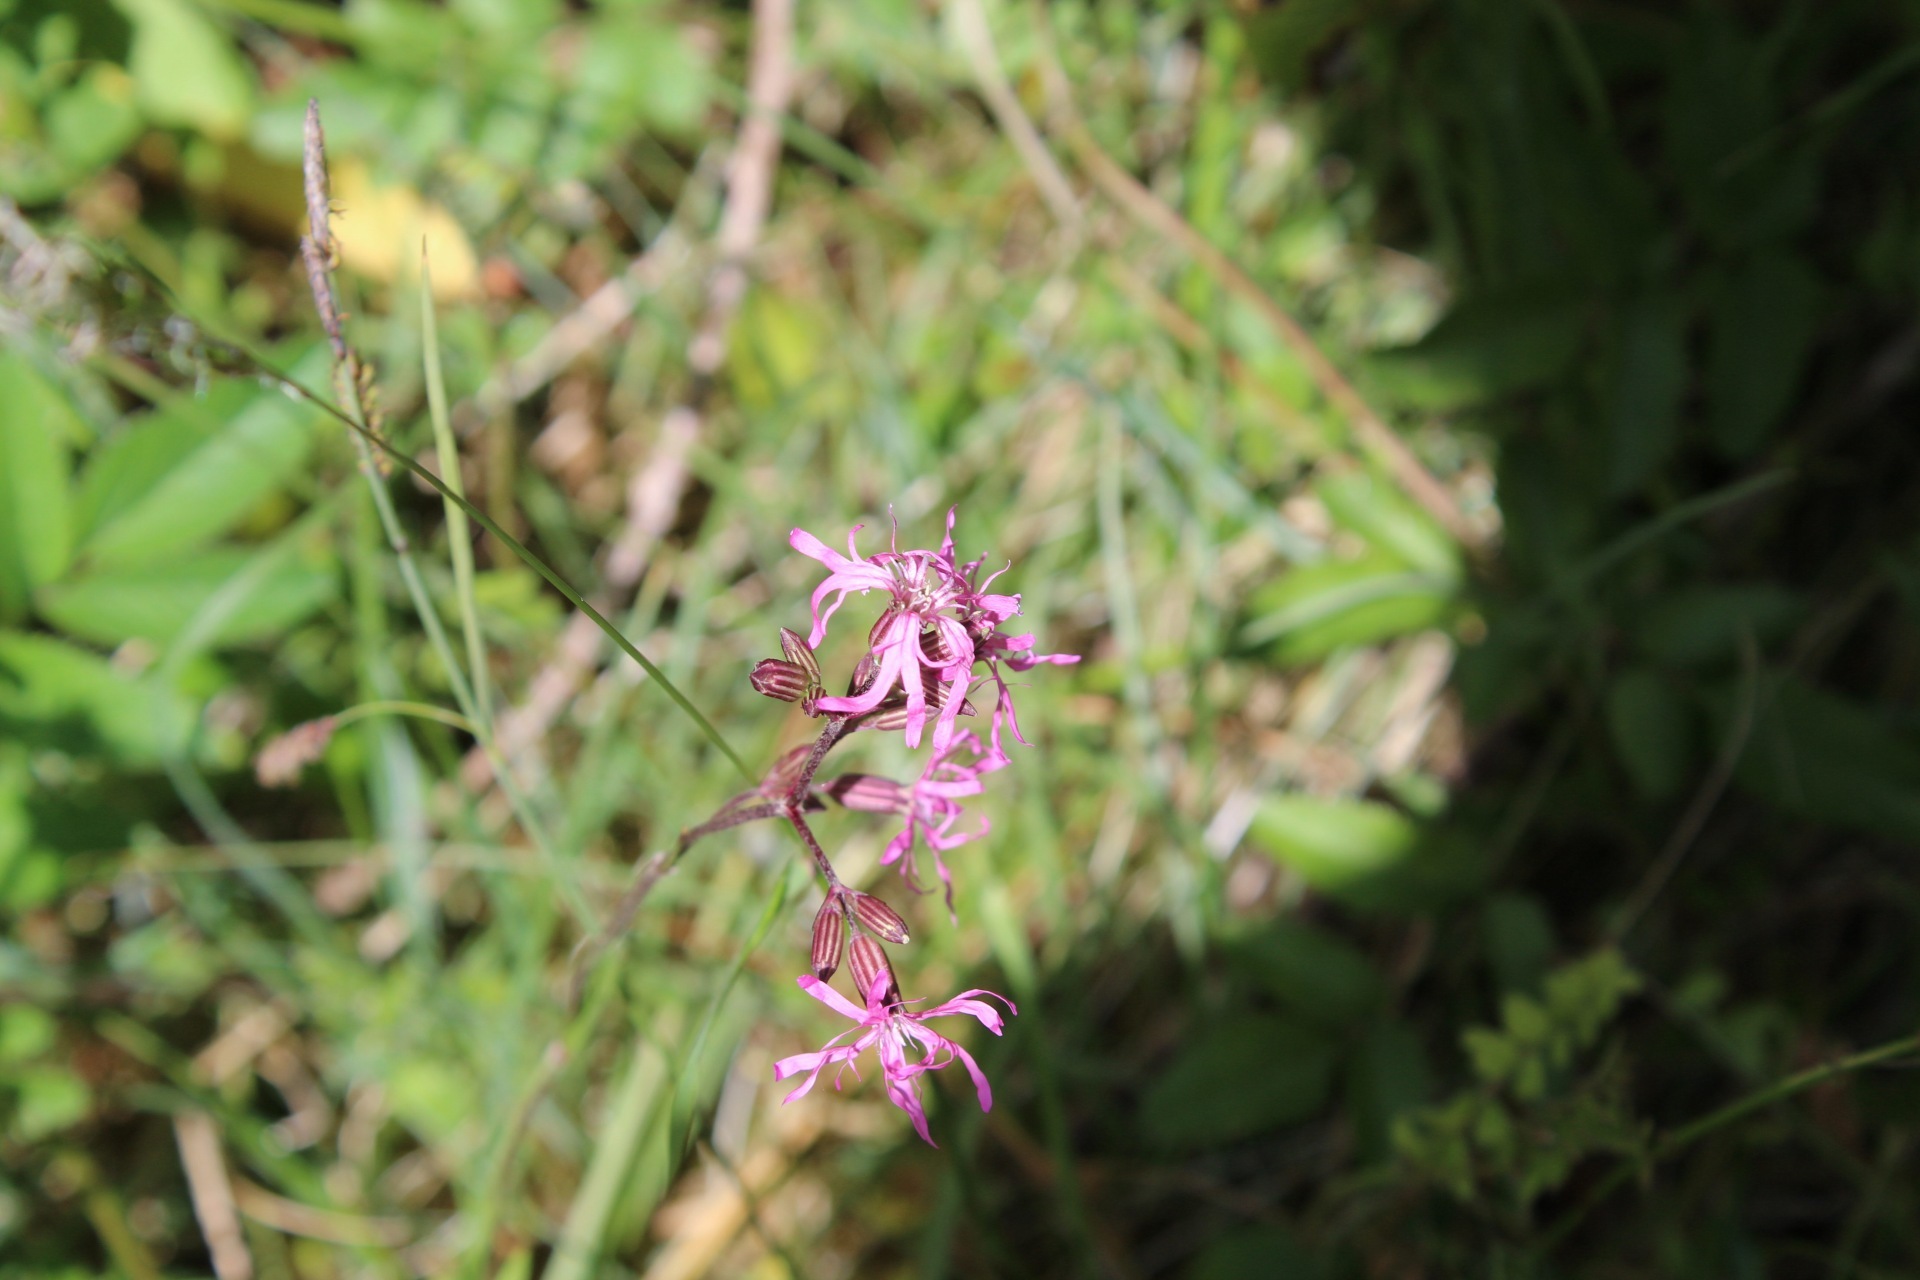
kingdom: Plantae
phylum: Tracheophyta
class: Magnoliopsida
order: Caryophyllales
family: Caryophyllaceae
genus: Silene
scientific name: Silene flos-cuculi
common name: Ragged-robin
